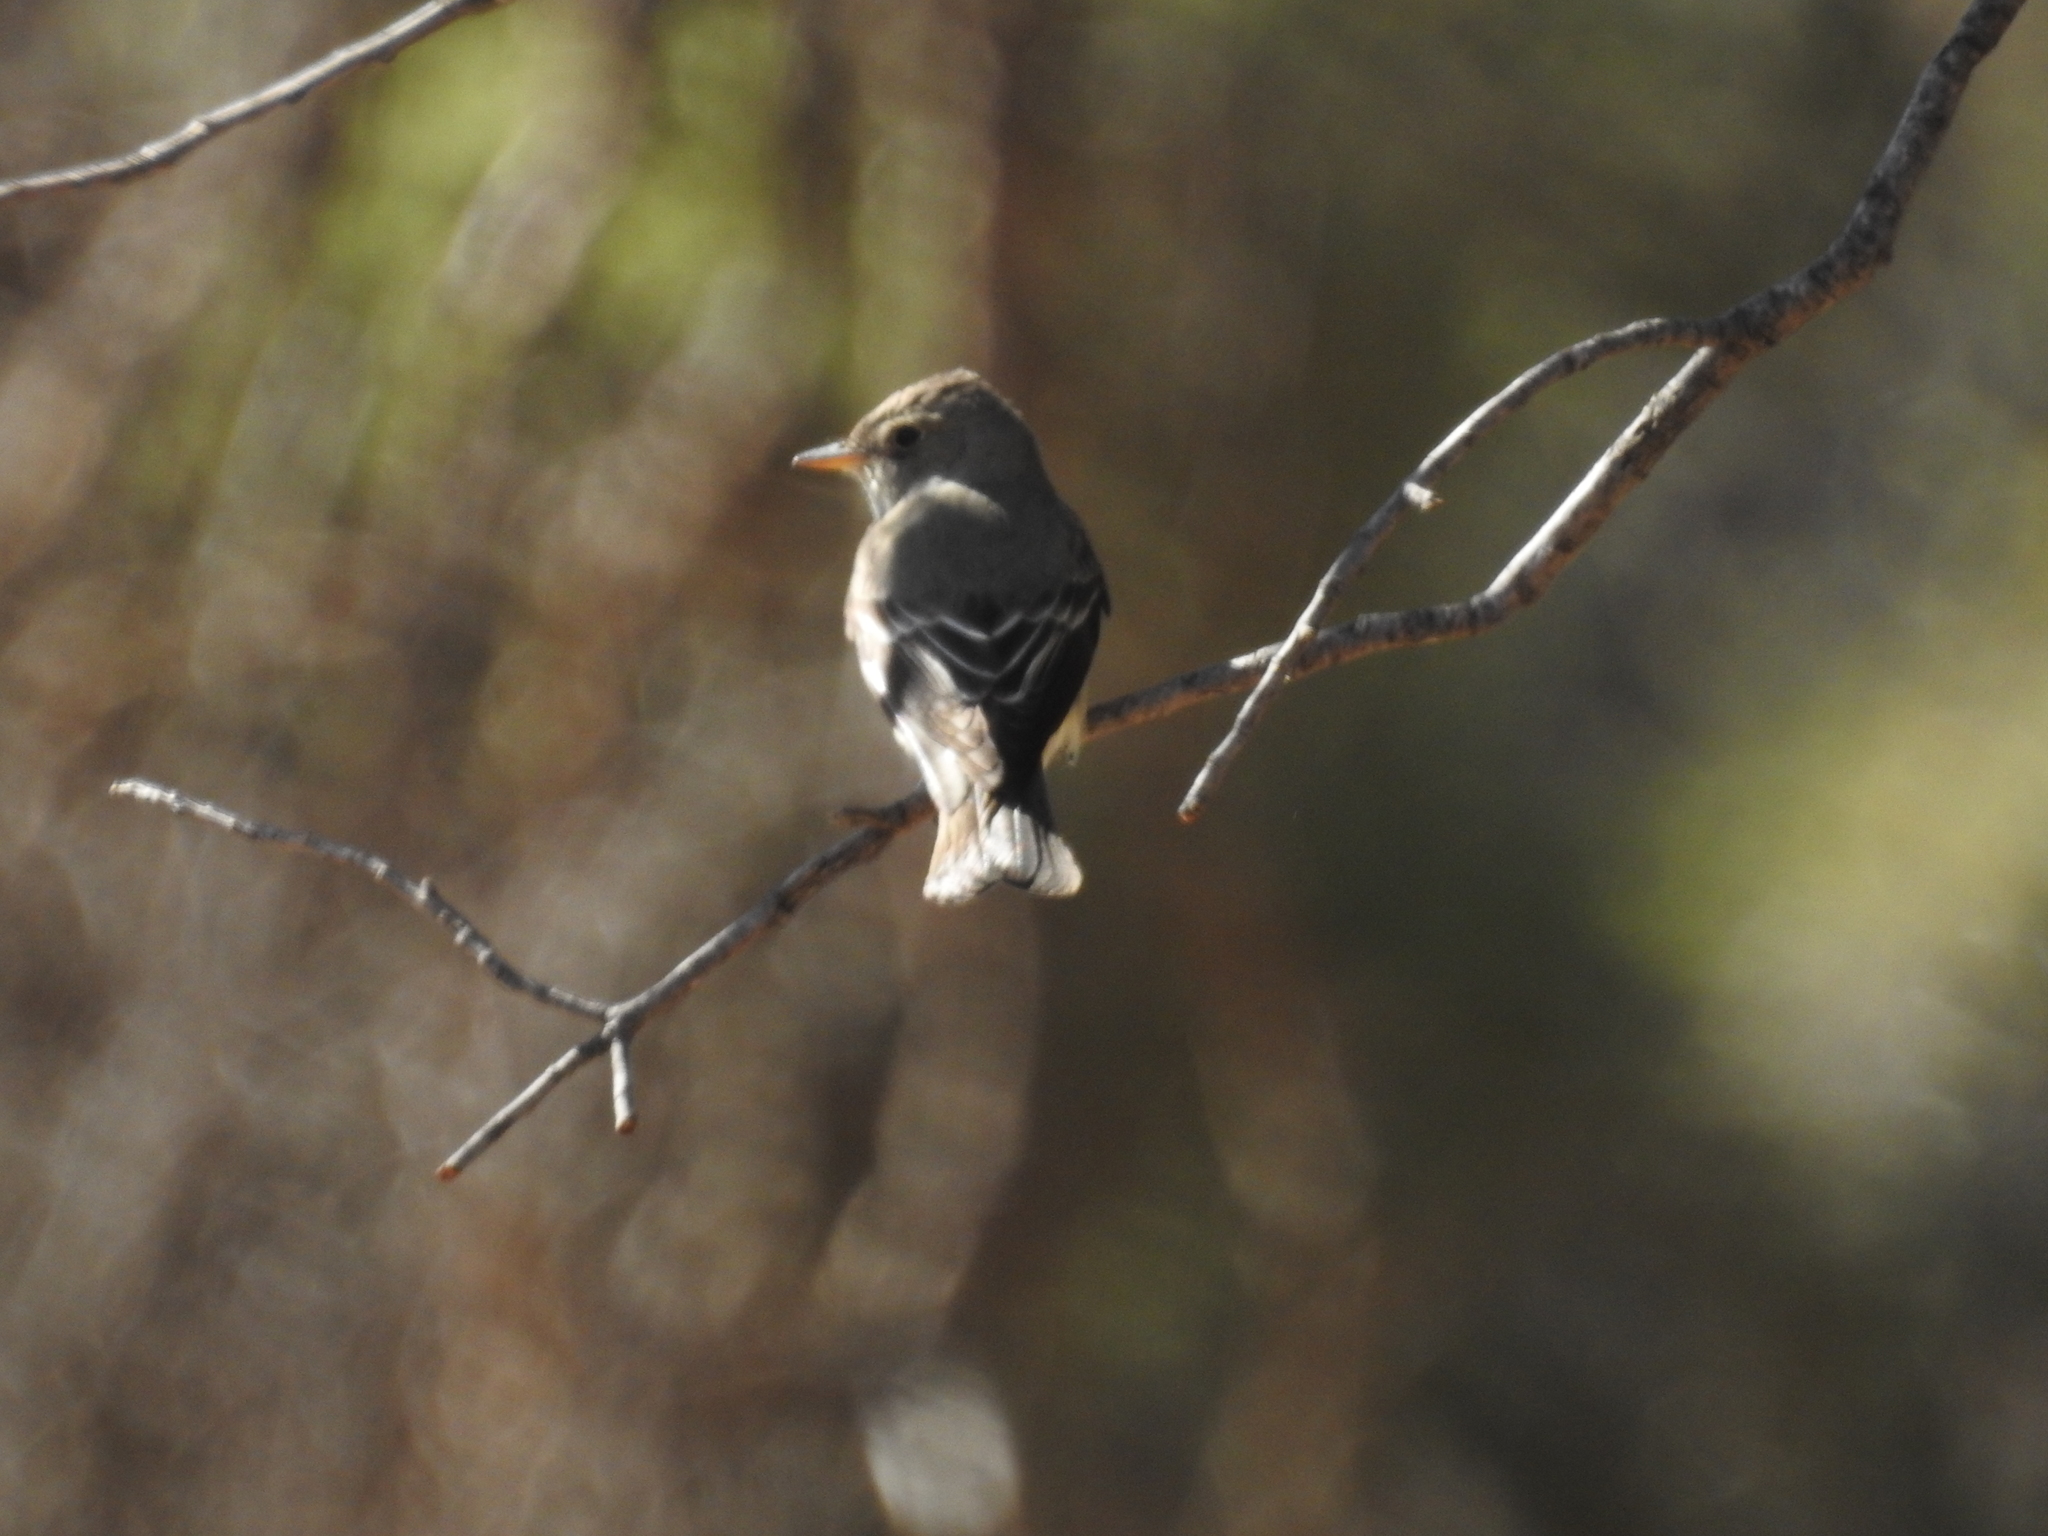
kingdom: Animalia
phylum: Chordata
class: Aves
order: Passeriformes
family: Tyrannidae
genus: Contopus
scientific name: Contopus sordidulus
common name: Western wood-pewee
